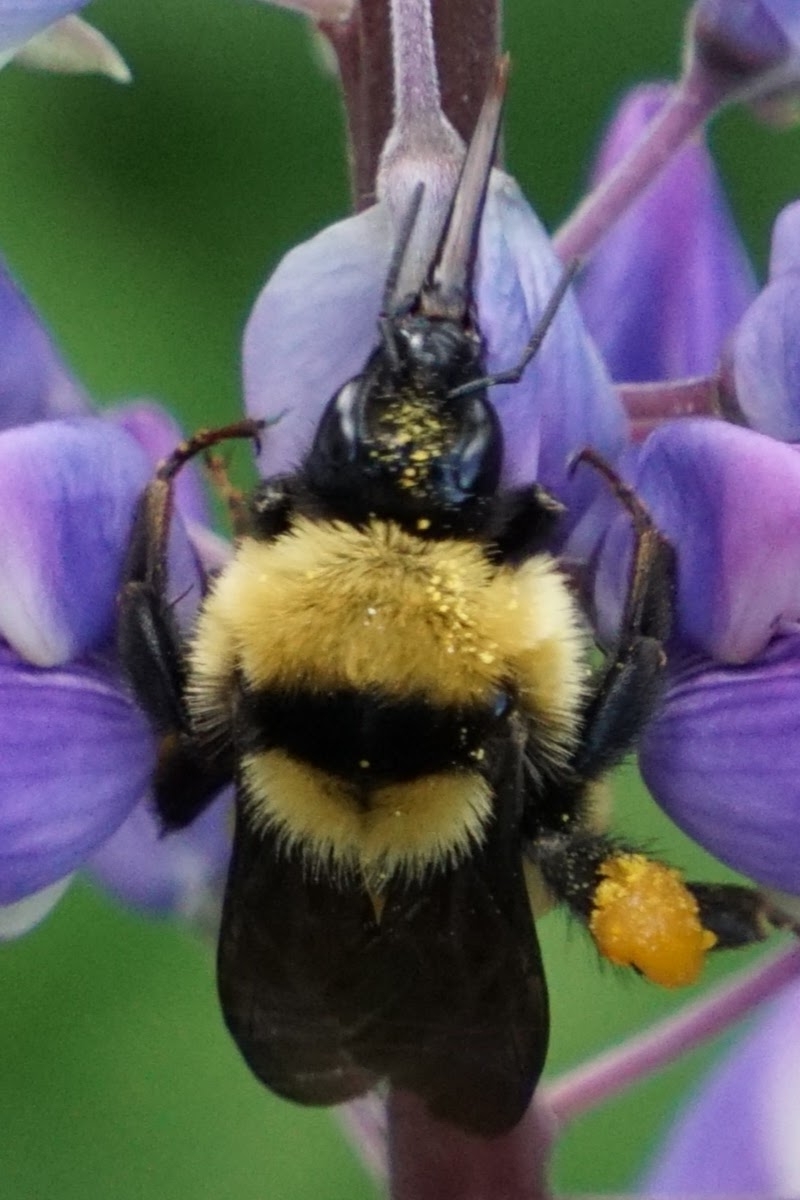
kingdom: Animalia
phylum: Arthropoda
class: Insecta
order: Hymenoptera
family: Apidae
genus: Bombus
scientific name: Bombus fervidus
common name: Yellow bumble bee
